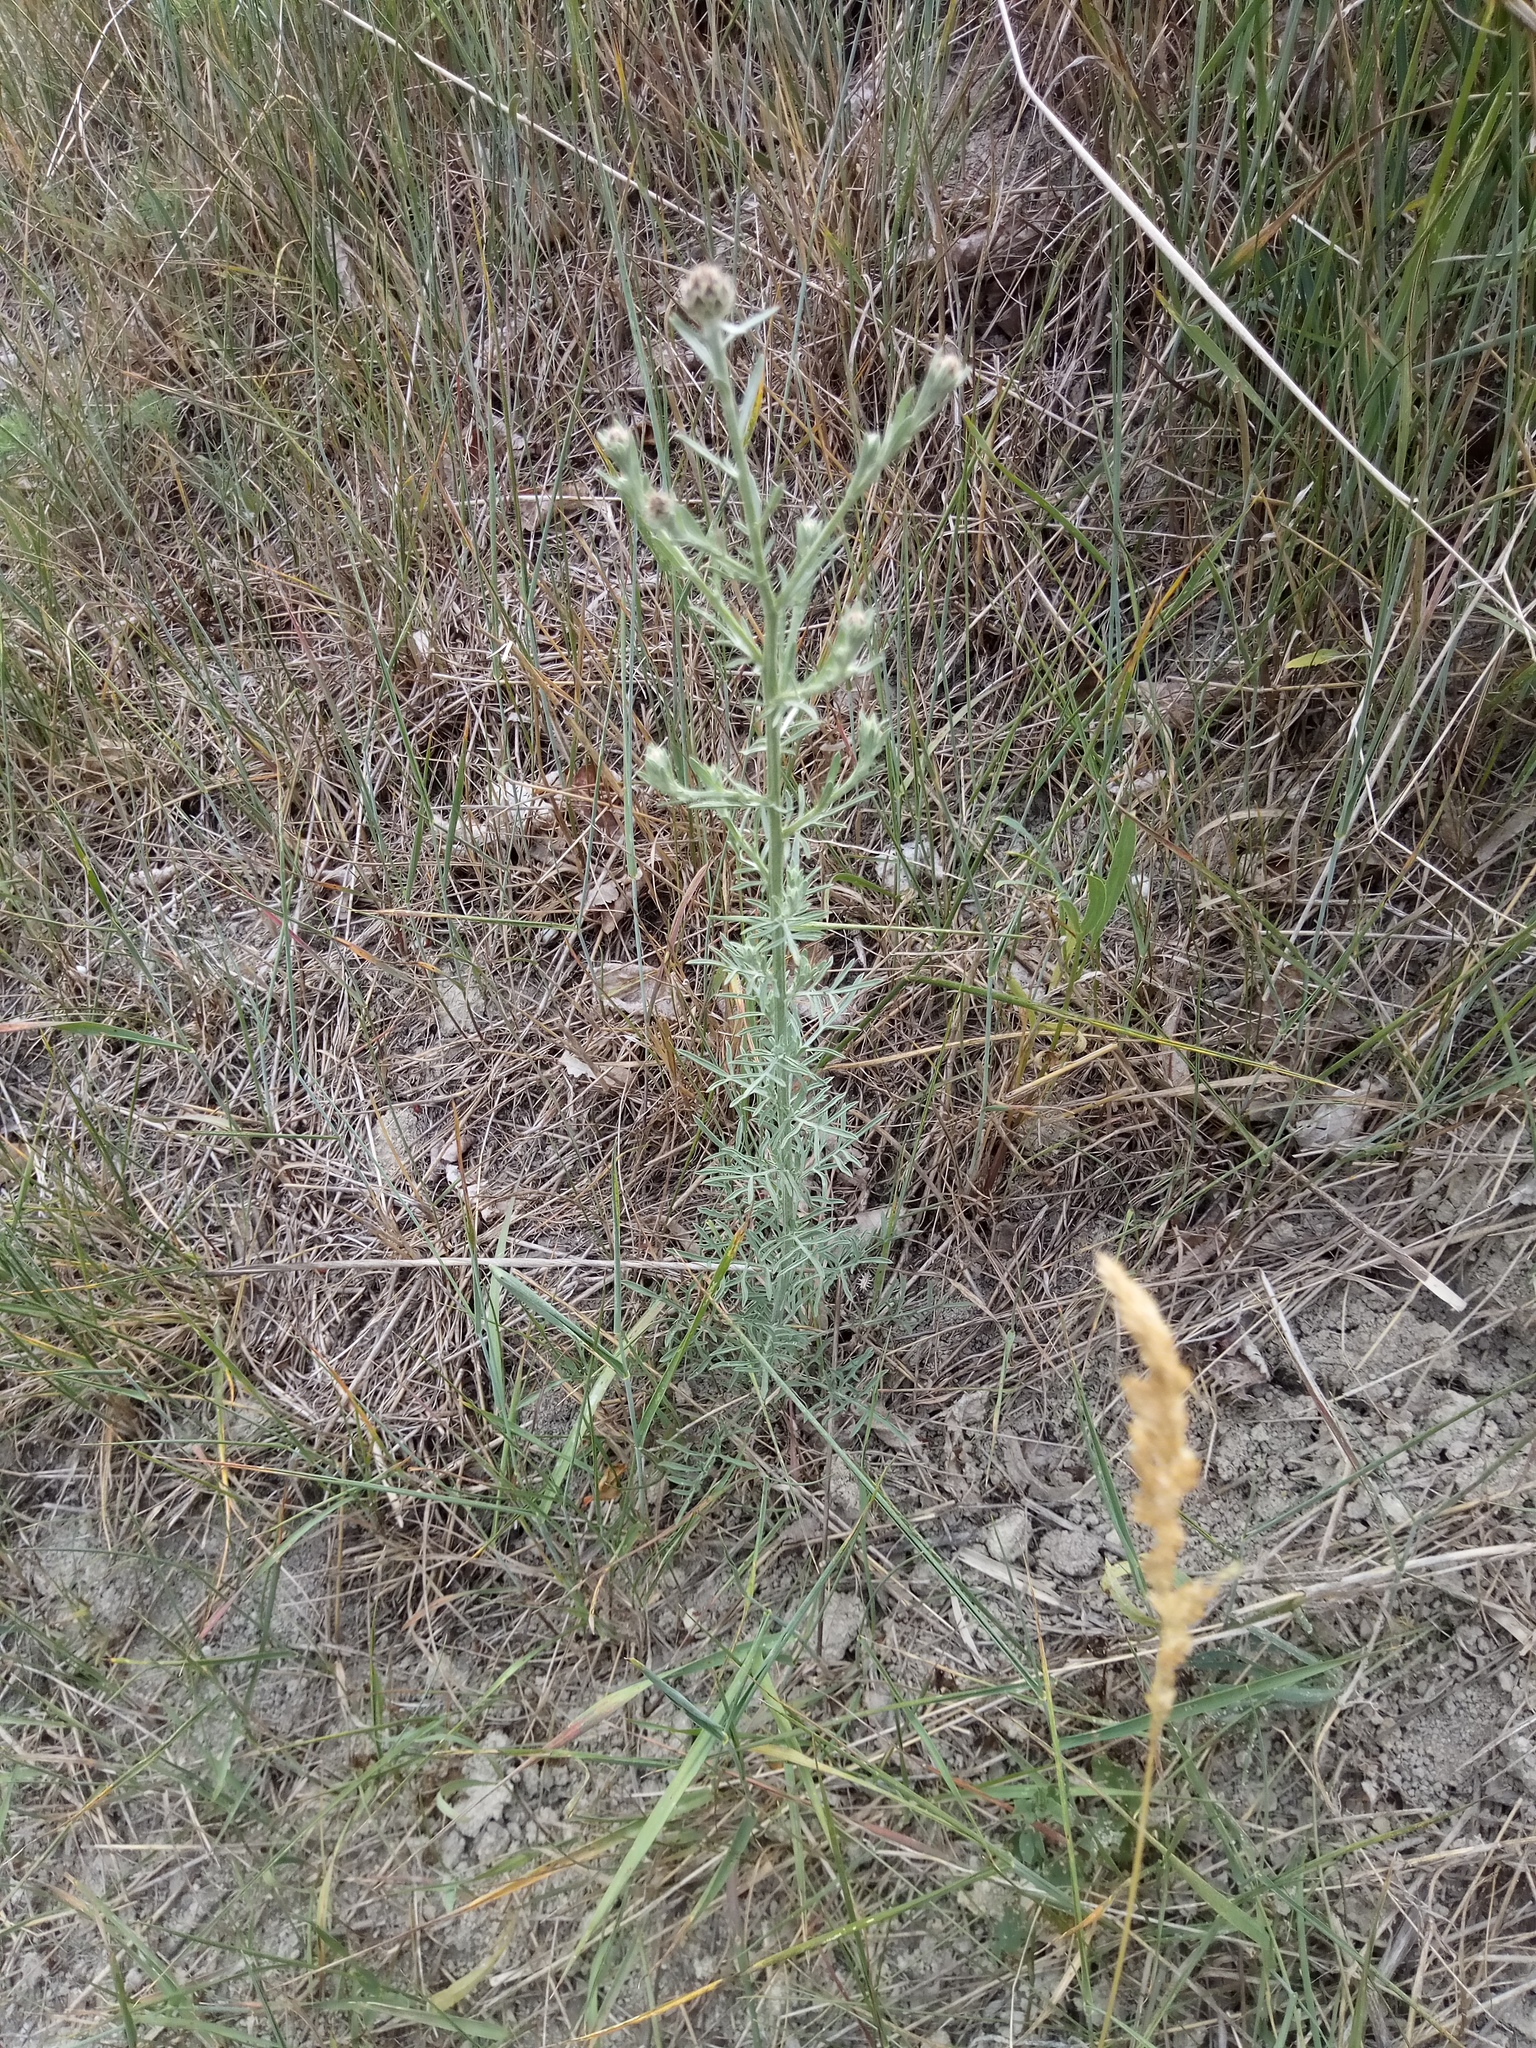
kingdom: Plantae
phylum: Tracheophyta
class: Magnoliopsida
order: Asterales
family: Asteraceae
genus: Centaurea
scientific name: Centaurea stoebe
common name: Spotted knapweed
